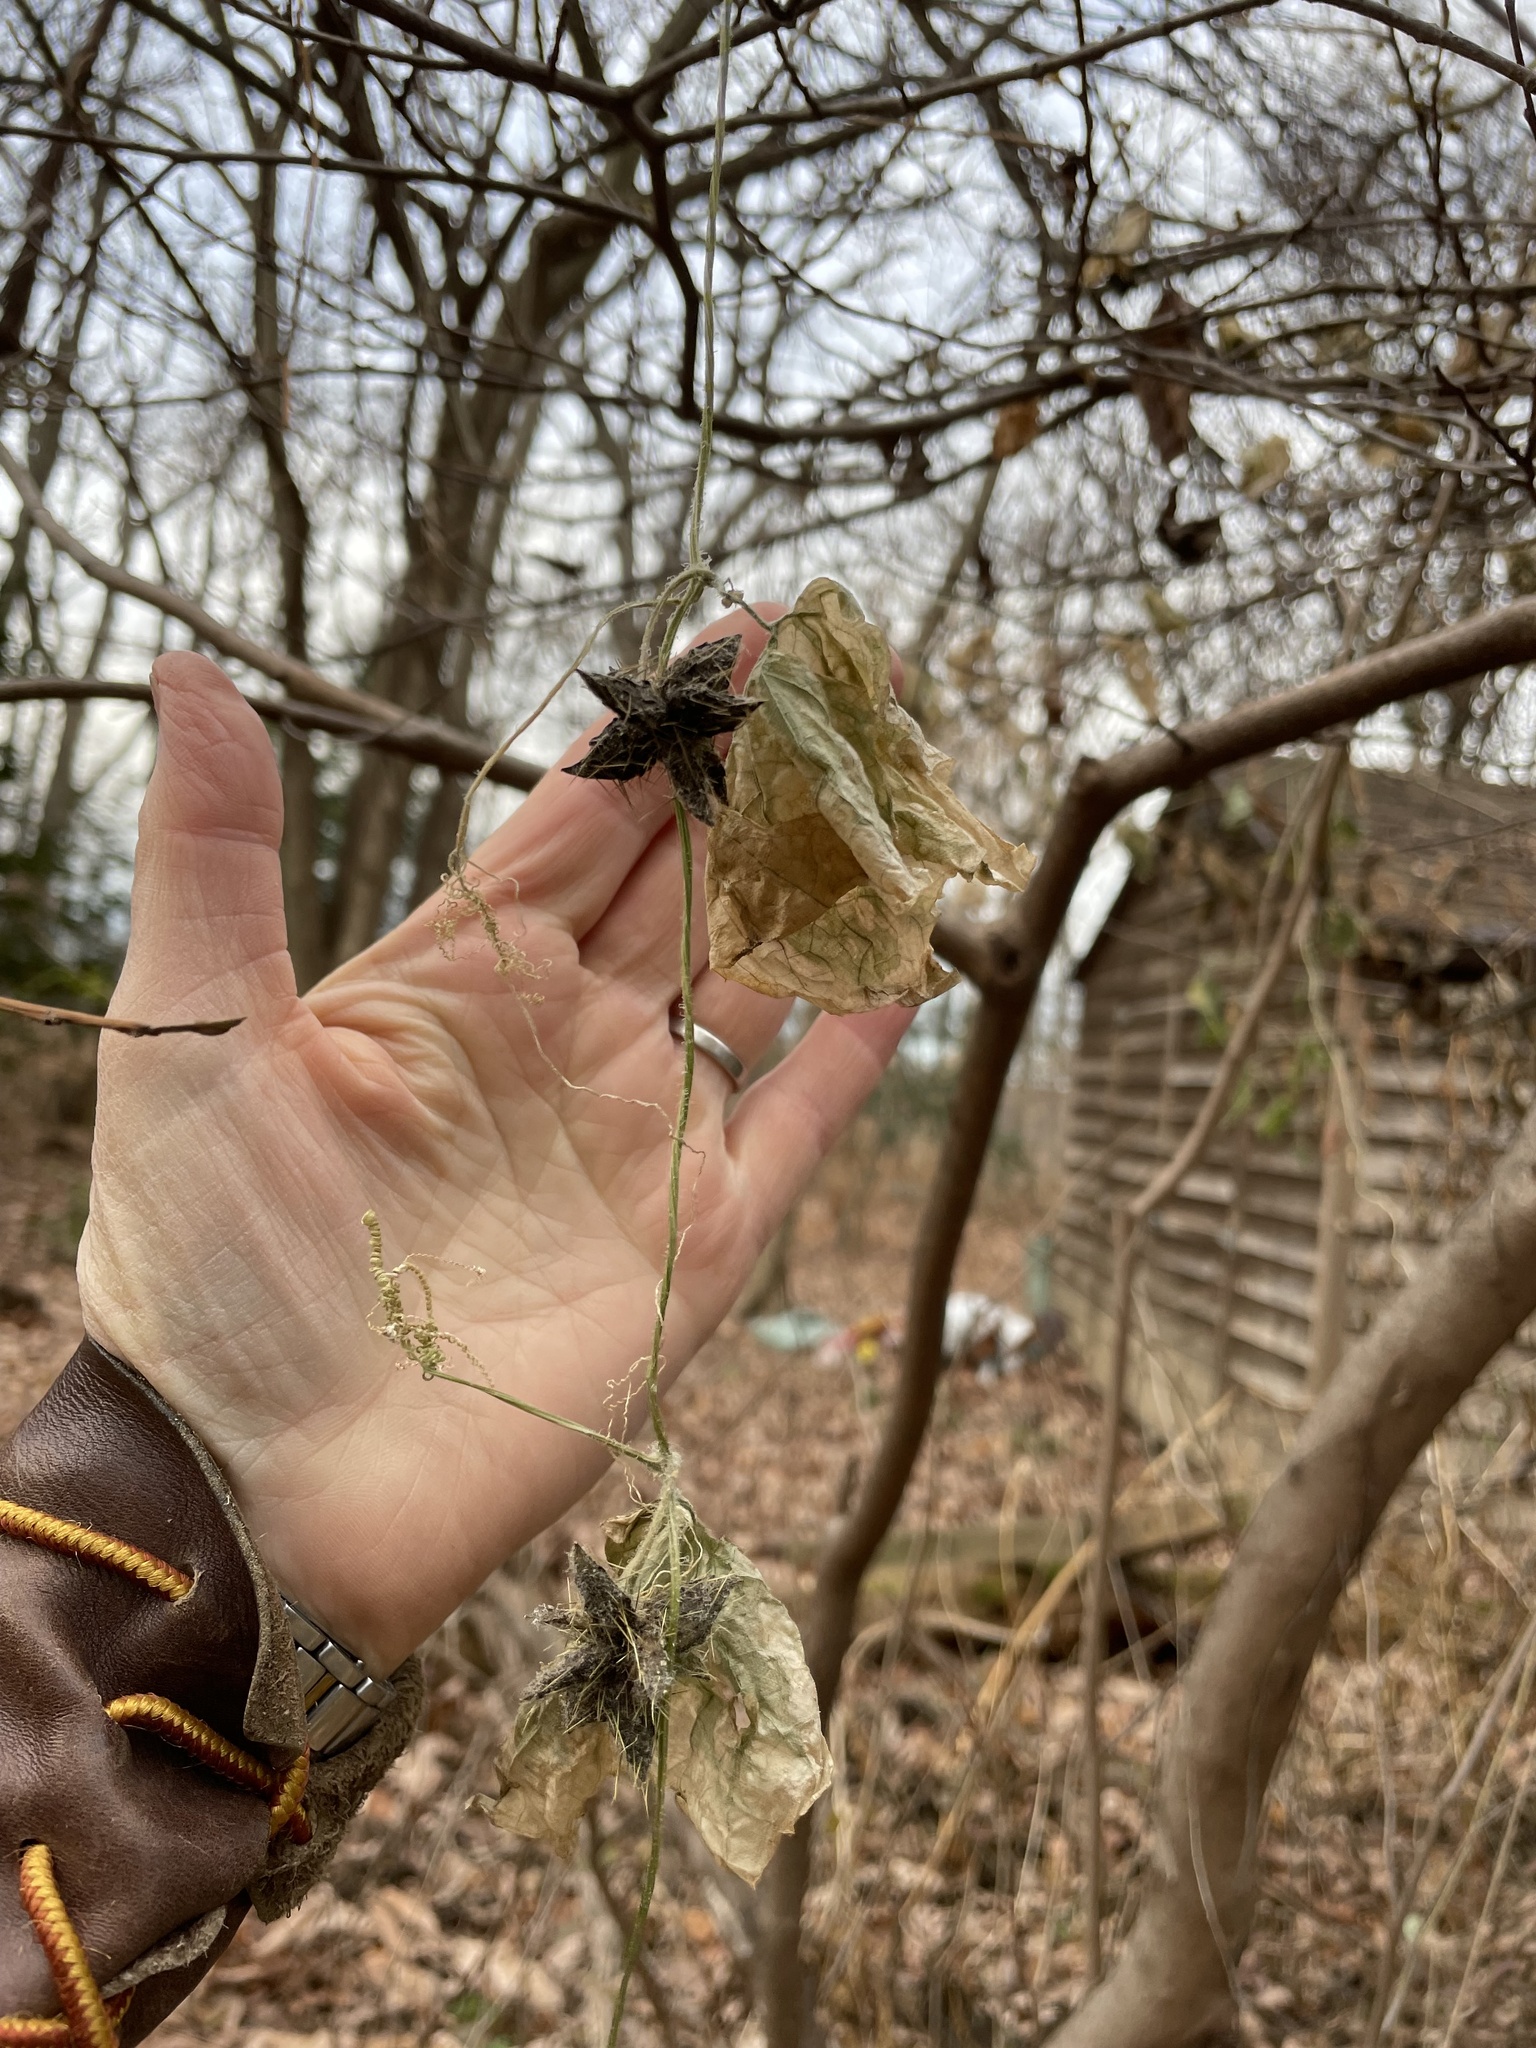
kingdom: Plantae
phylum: Tracheophyta
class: Magnoliopsida
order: Cucurbitales
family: Cucurbitaceae
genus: Sicyos
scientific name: Sicyos angulatus
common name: Angled burr cucumber
